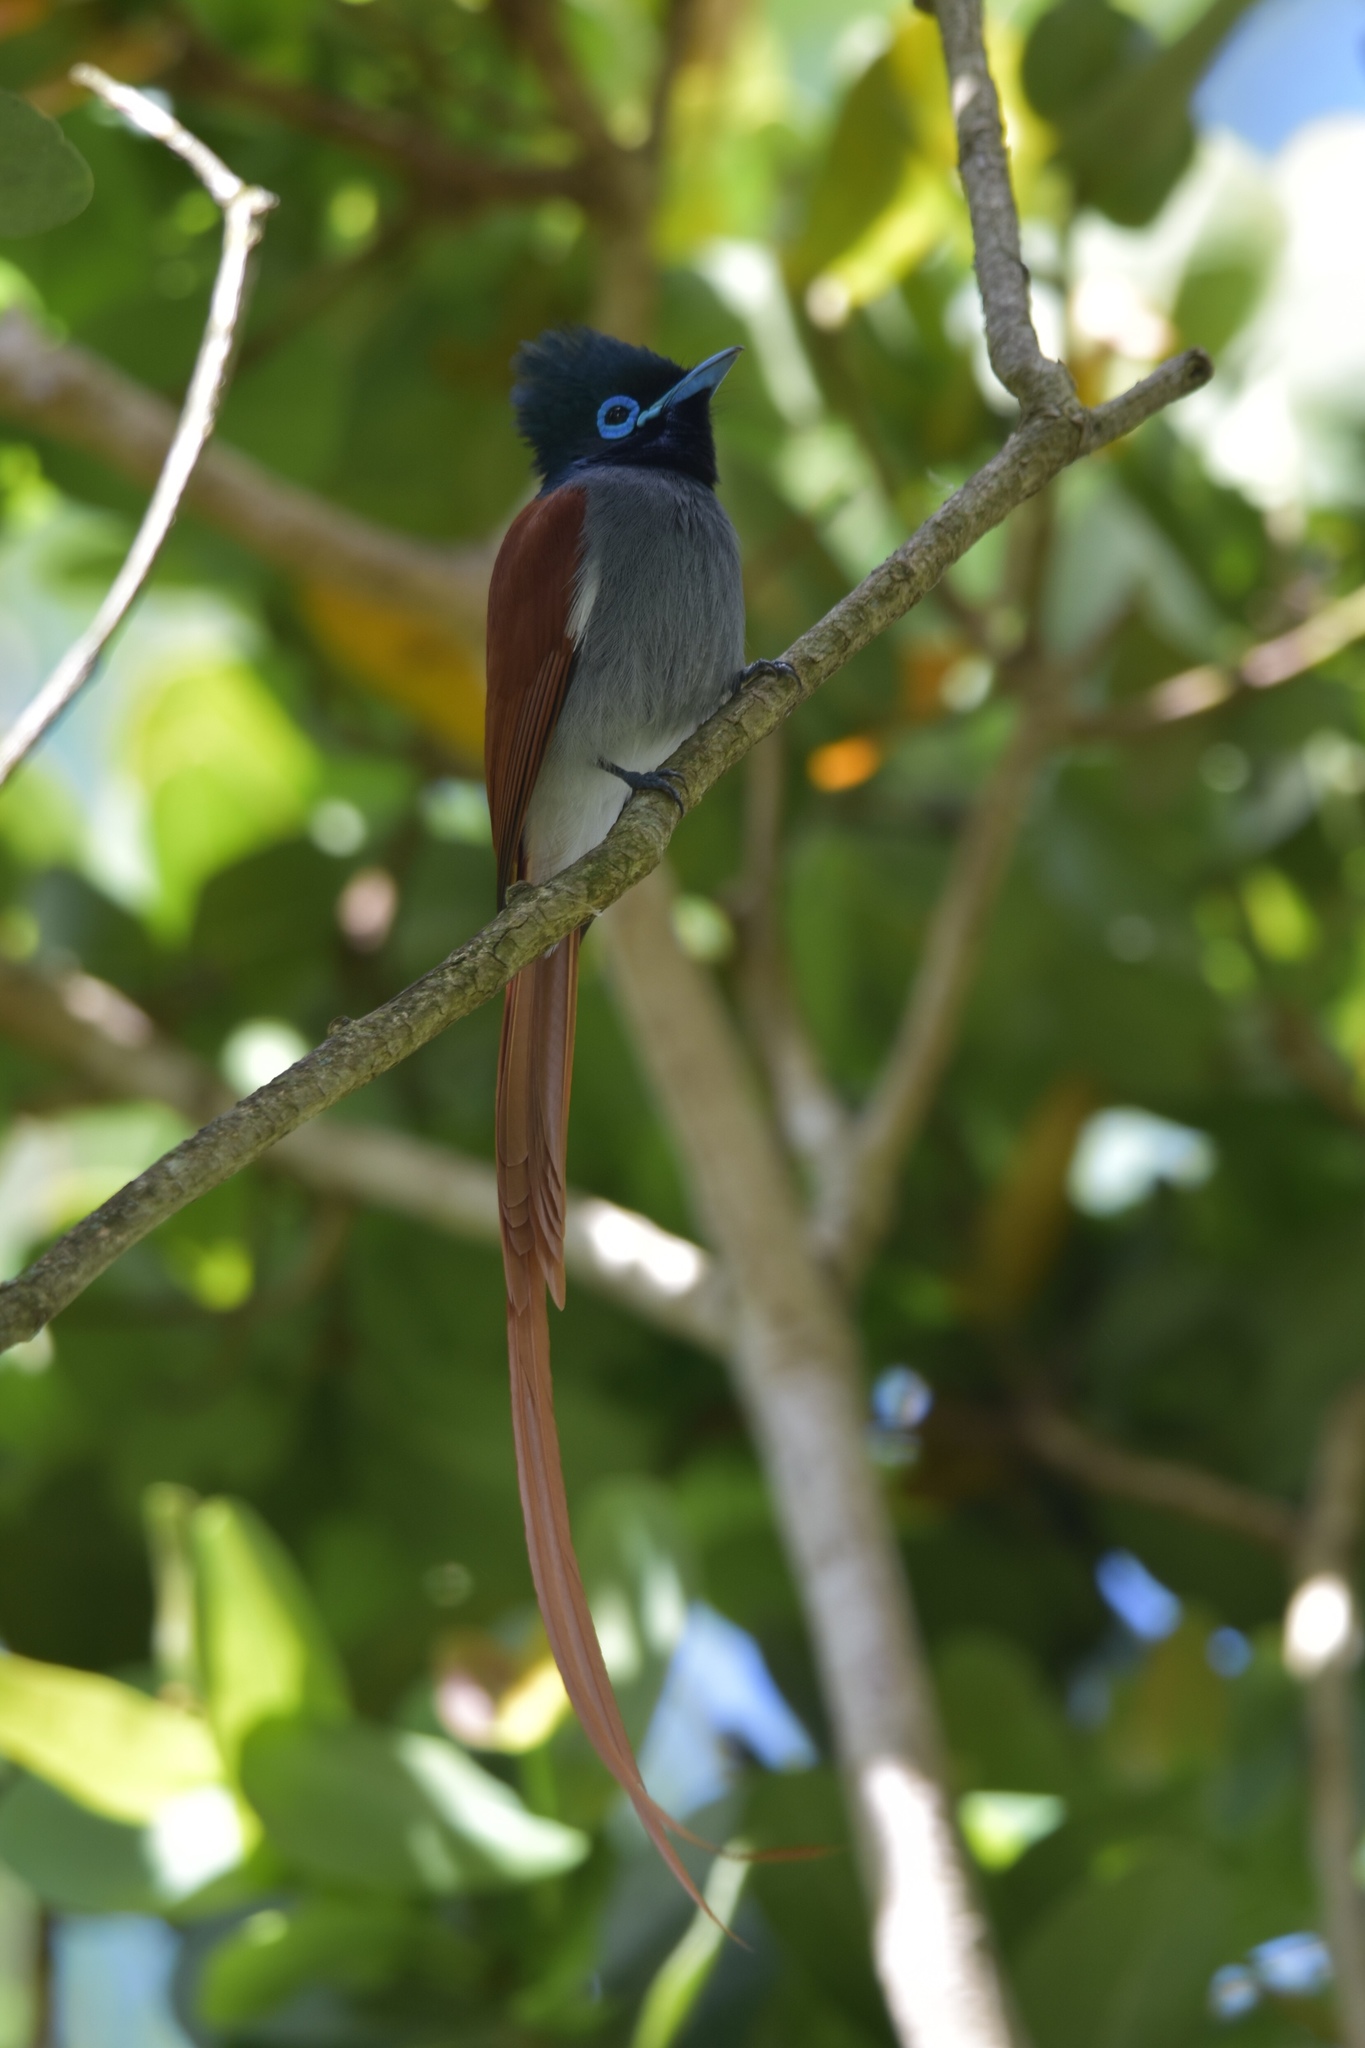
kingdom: Animalia
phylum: Chordata
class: Aves
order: Passeriformes
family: Monarchidae
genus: Terpsiphone
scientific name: Terpsiphone viridis
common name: African paradise flycatcher
